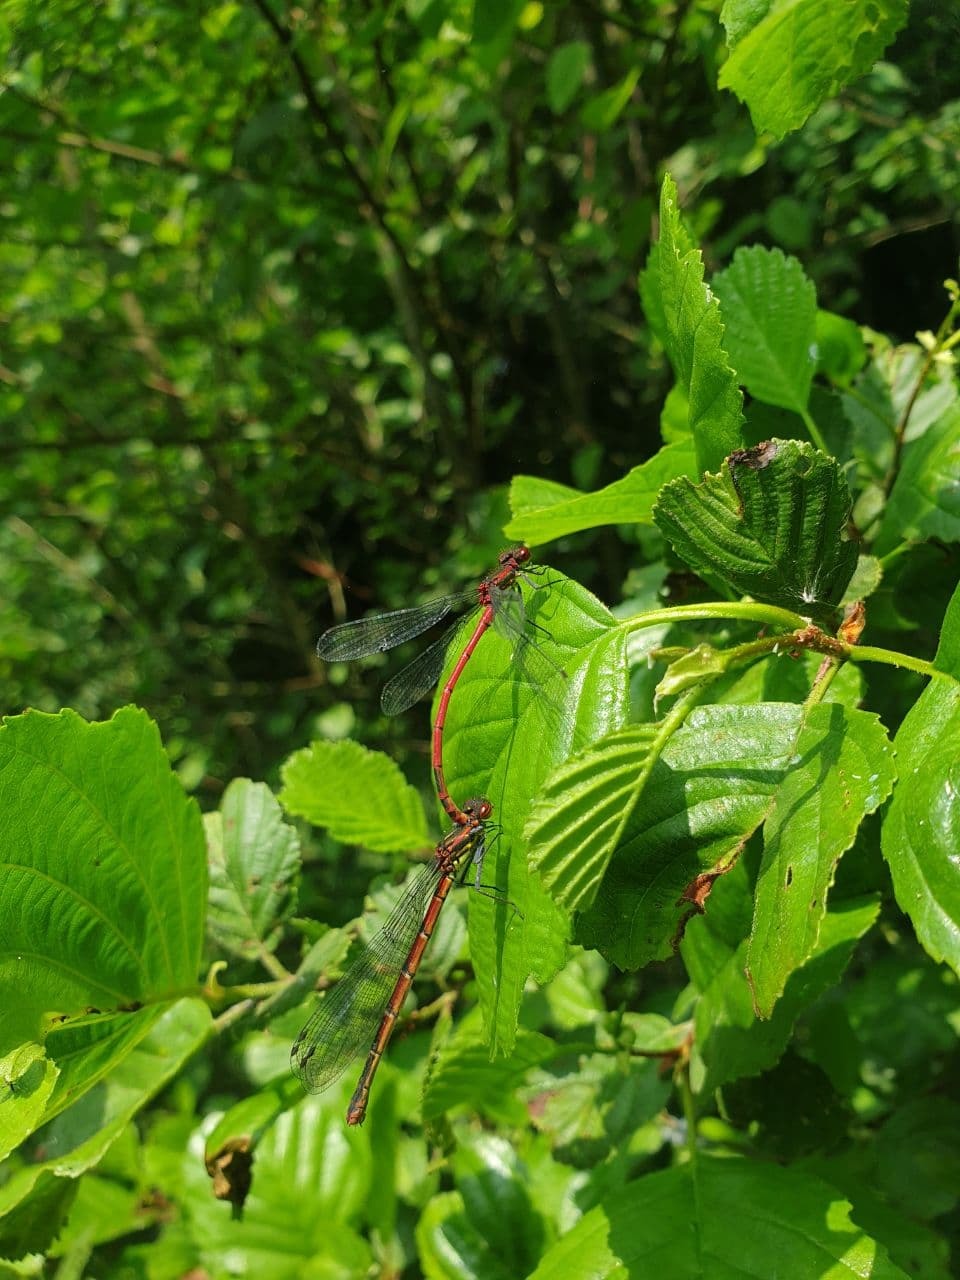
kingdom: Animalia
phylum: Arthropoda
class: Insecta
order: Odonata
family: Coenagrionidae
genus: Pyrrhosoma
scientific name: Pyrrhosoma nymphula
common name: Large red damsel
